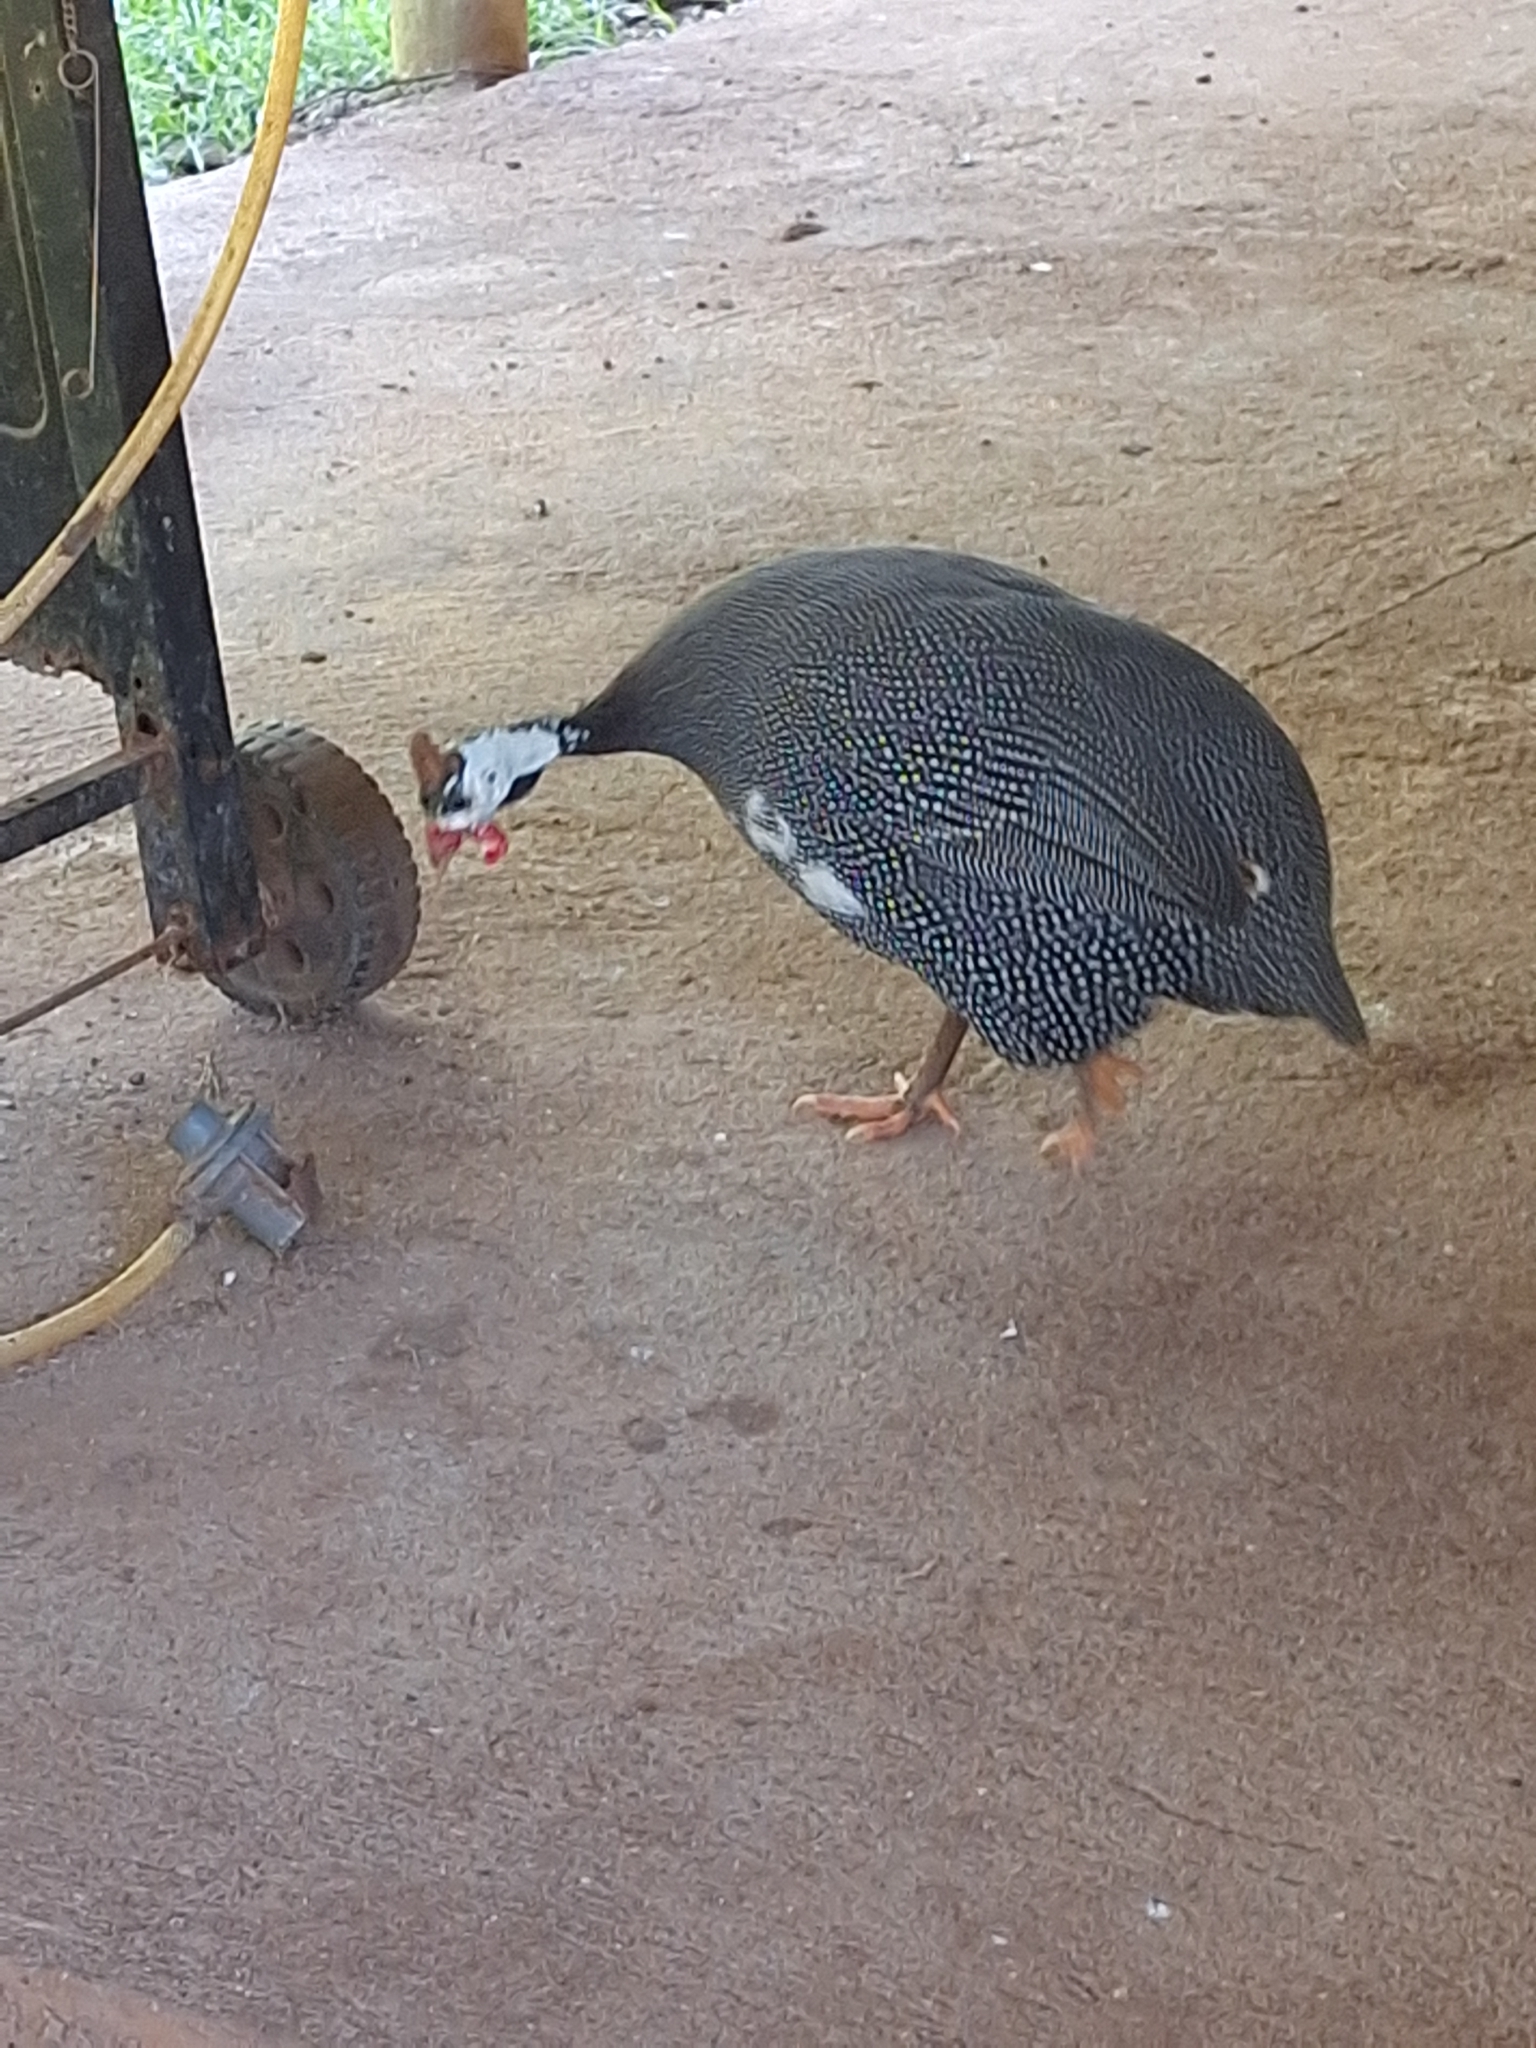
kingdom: Animalia
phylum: Chordata
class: Aves
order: Galliformes
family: Numididae
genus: Numida
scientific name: Numida meleagris
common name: Helmeted guineafowl
